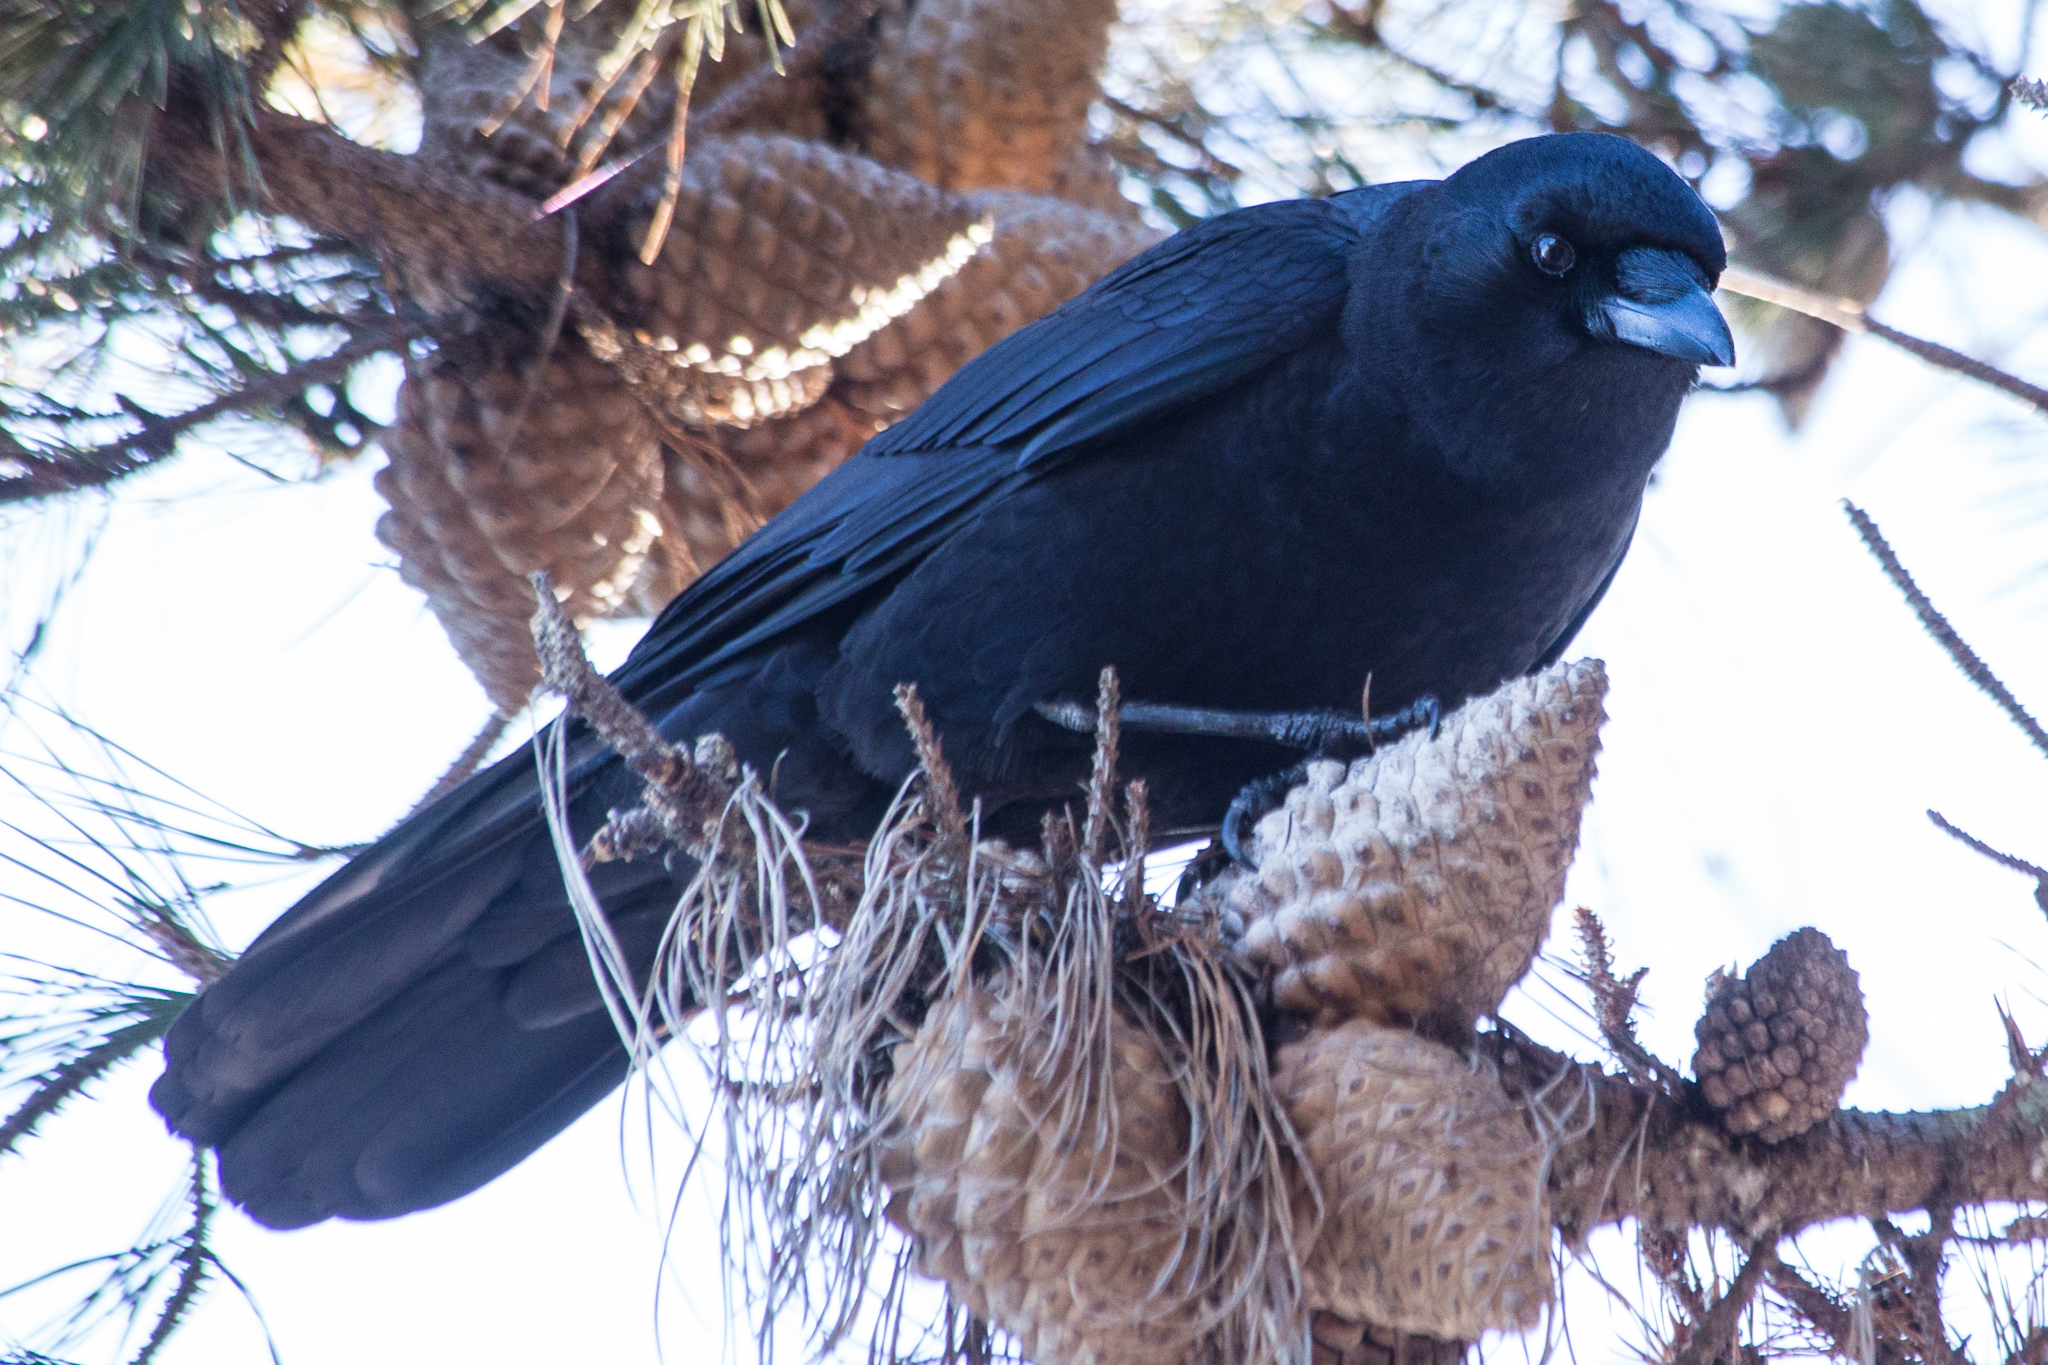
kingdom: Animalia
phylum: Chordata
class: Aves
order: Passeriformes
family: Corvidae
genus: Corvus
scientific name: Corvus brachyrhynchos
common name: American crow
